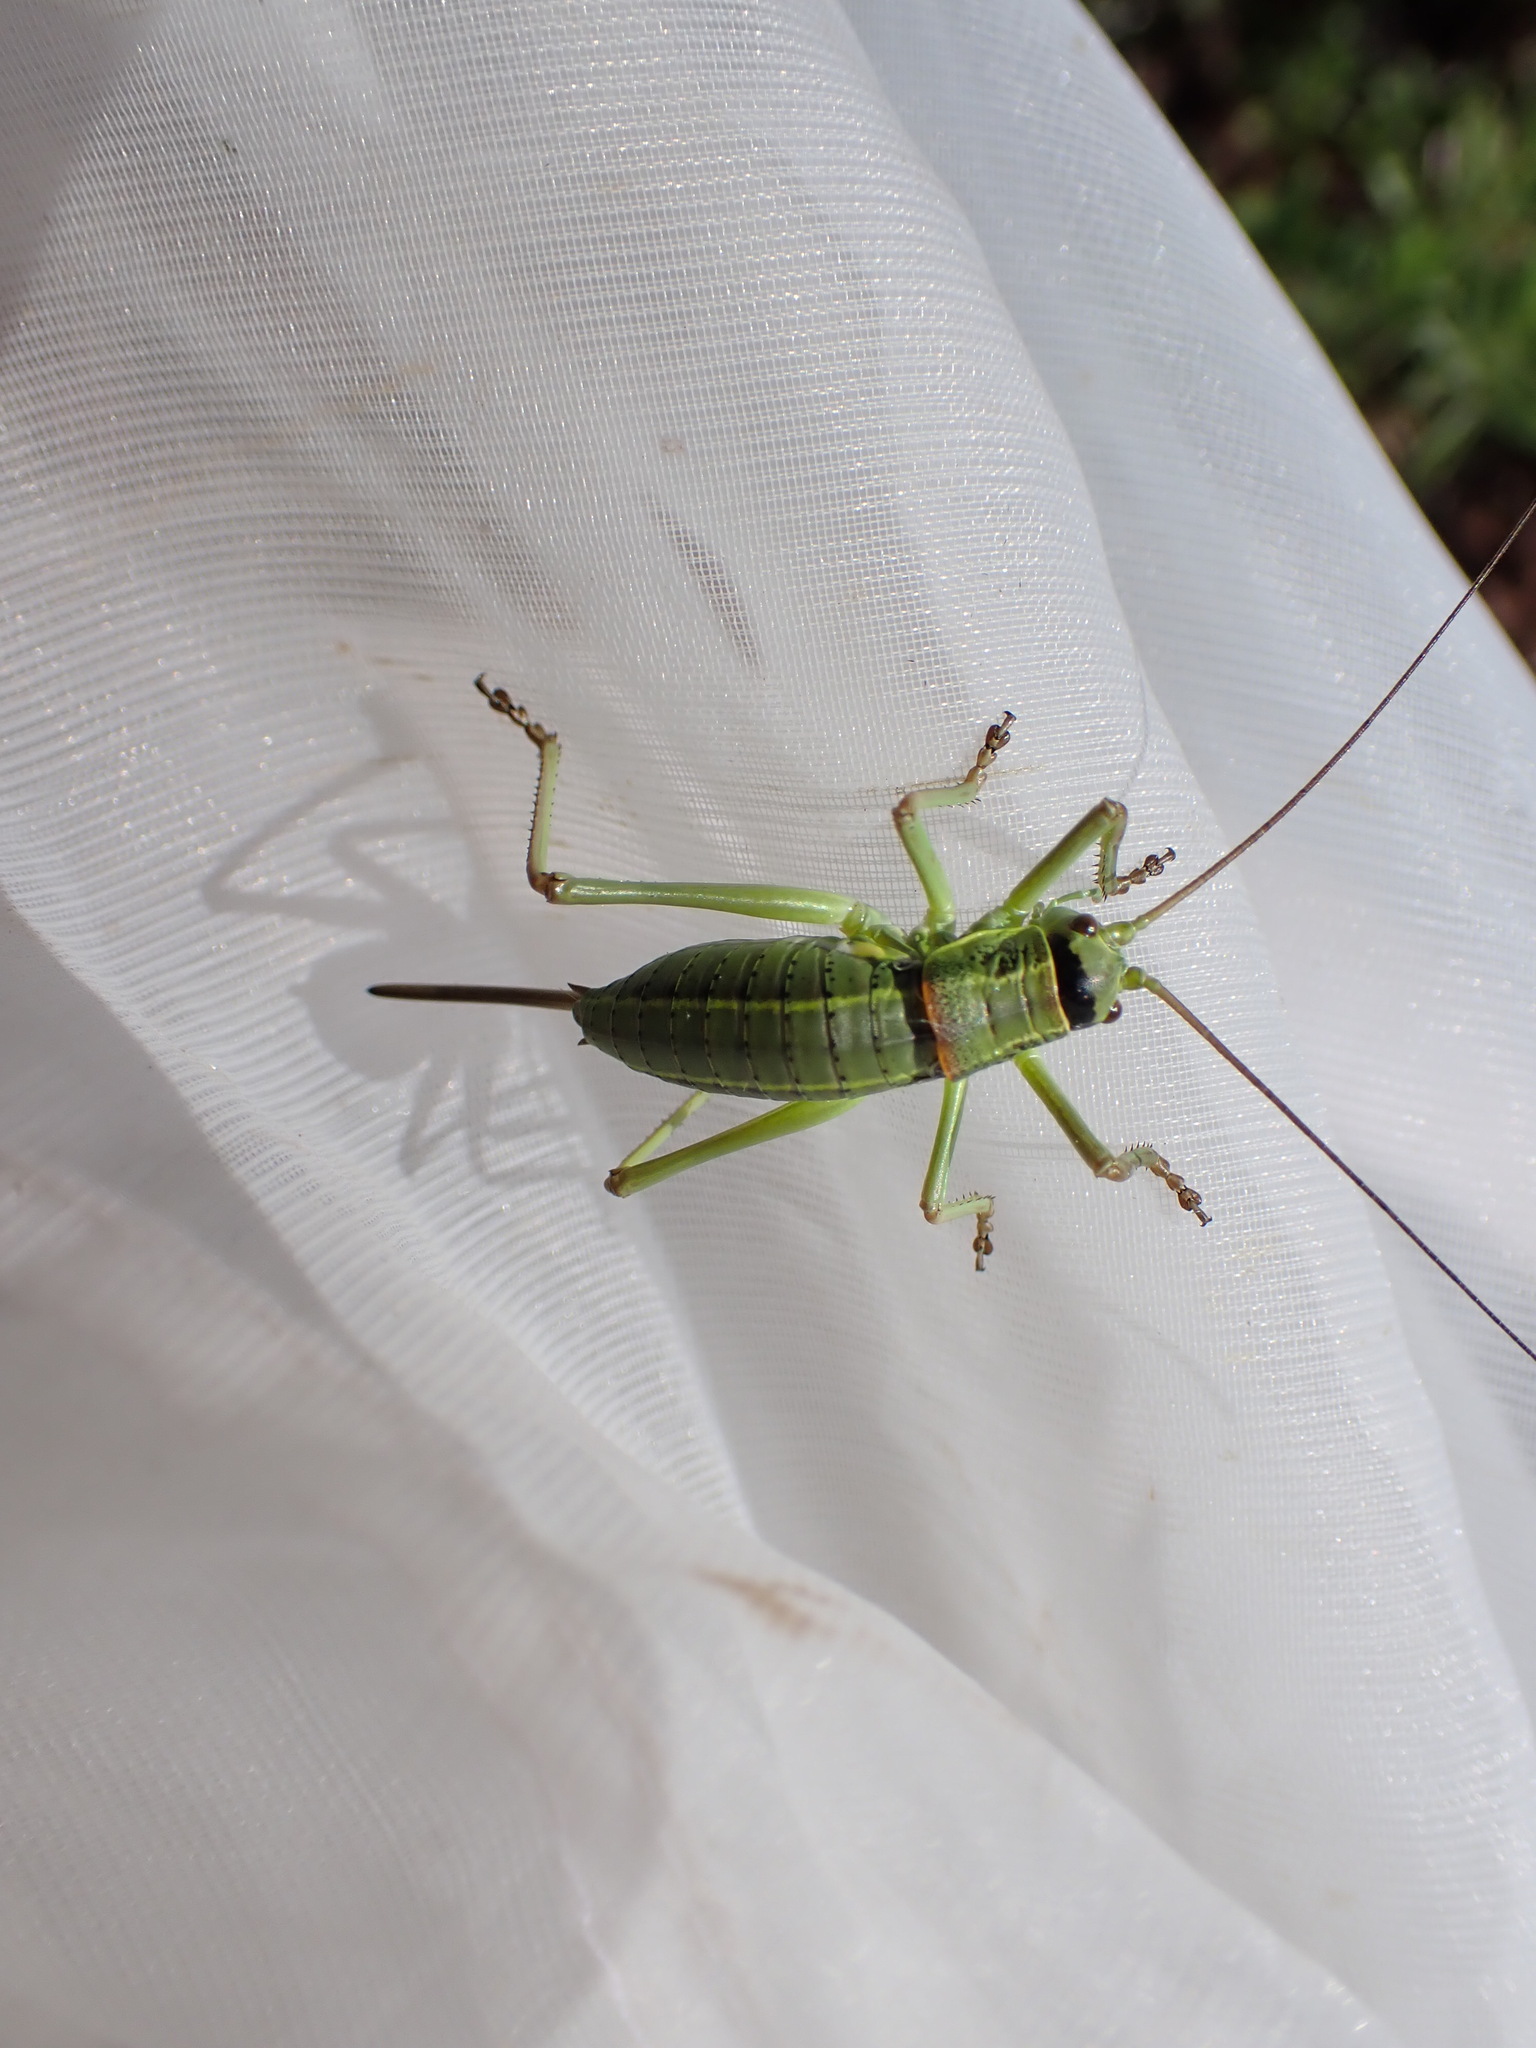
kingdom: Animalia
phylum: Arthropoda
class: Insecta
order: Orthoptera
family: Tettigoniidae
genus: Ephippiger
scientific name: Ephippiger terrestris
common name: Alpine saddle-backed bush-cricket
